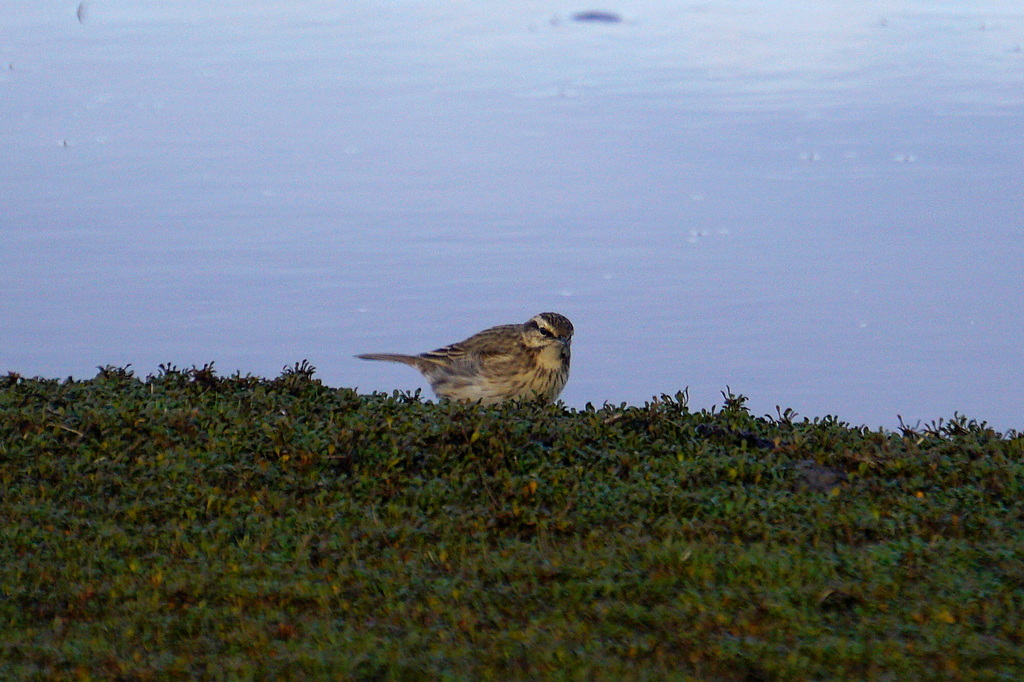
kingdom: Animalia
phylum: Chordata
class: Aves
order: Passeriformes
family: Motacillidae
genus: Anthus
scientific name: Anthus novaeseelandiae
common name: New zealand pipit
